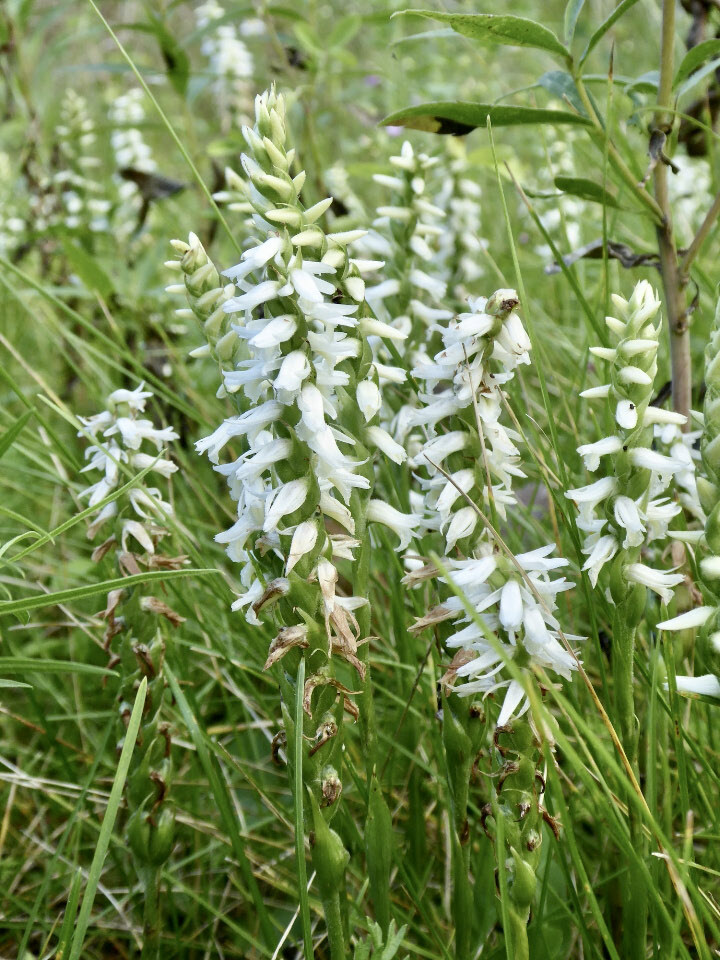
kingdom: Plantae
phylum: Tracheophyta
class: Liliopsida
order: Asparagales
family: Orchidaceae
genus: Spiranthes
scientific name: Spiranthes magnicamporum
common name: Great plains ladies'-tresses
